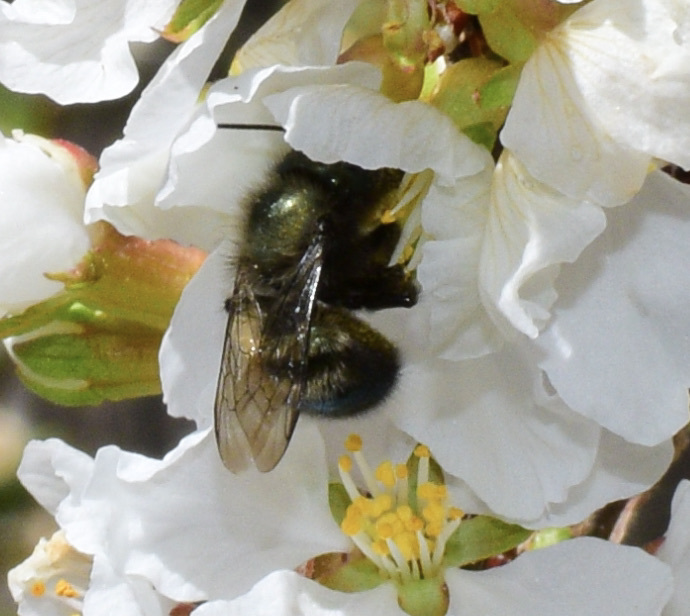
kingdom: Animalia
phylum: Arthropoda
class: Insecta
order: Hymenoptera
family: Megachilidae
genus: Osmia
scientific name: Osmia lignaria
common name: Blue orchard bee
